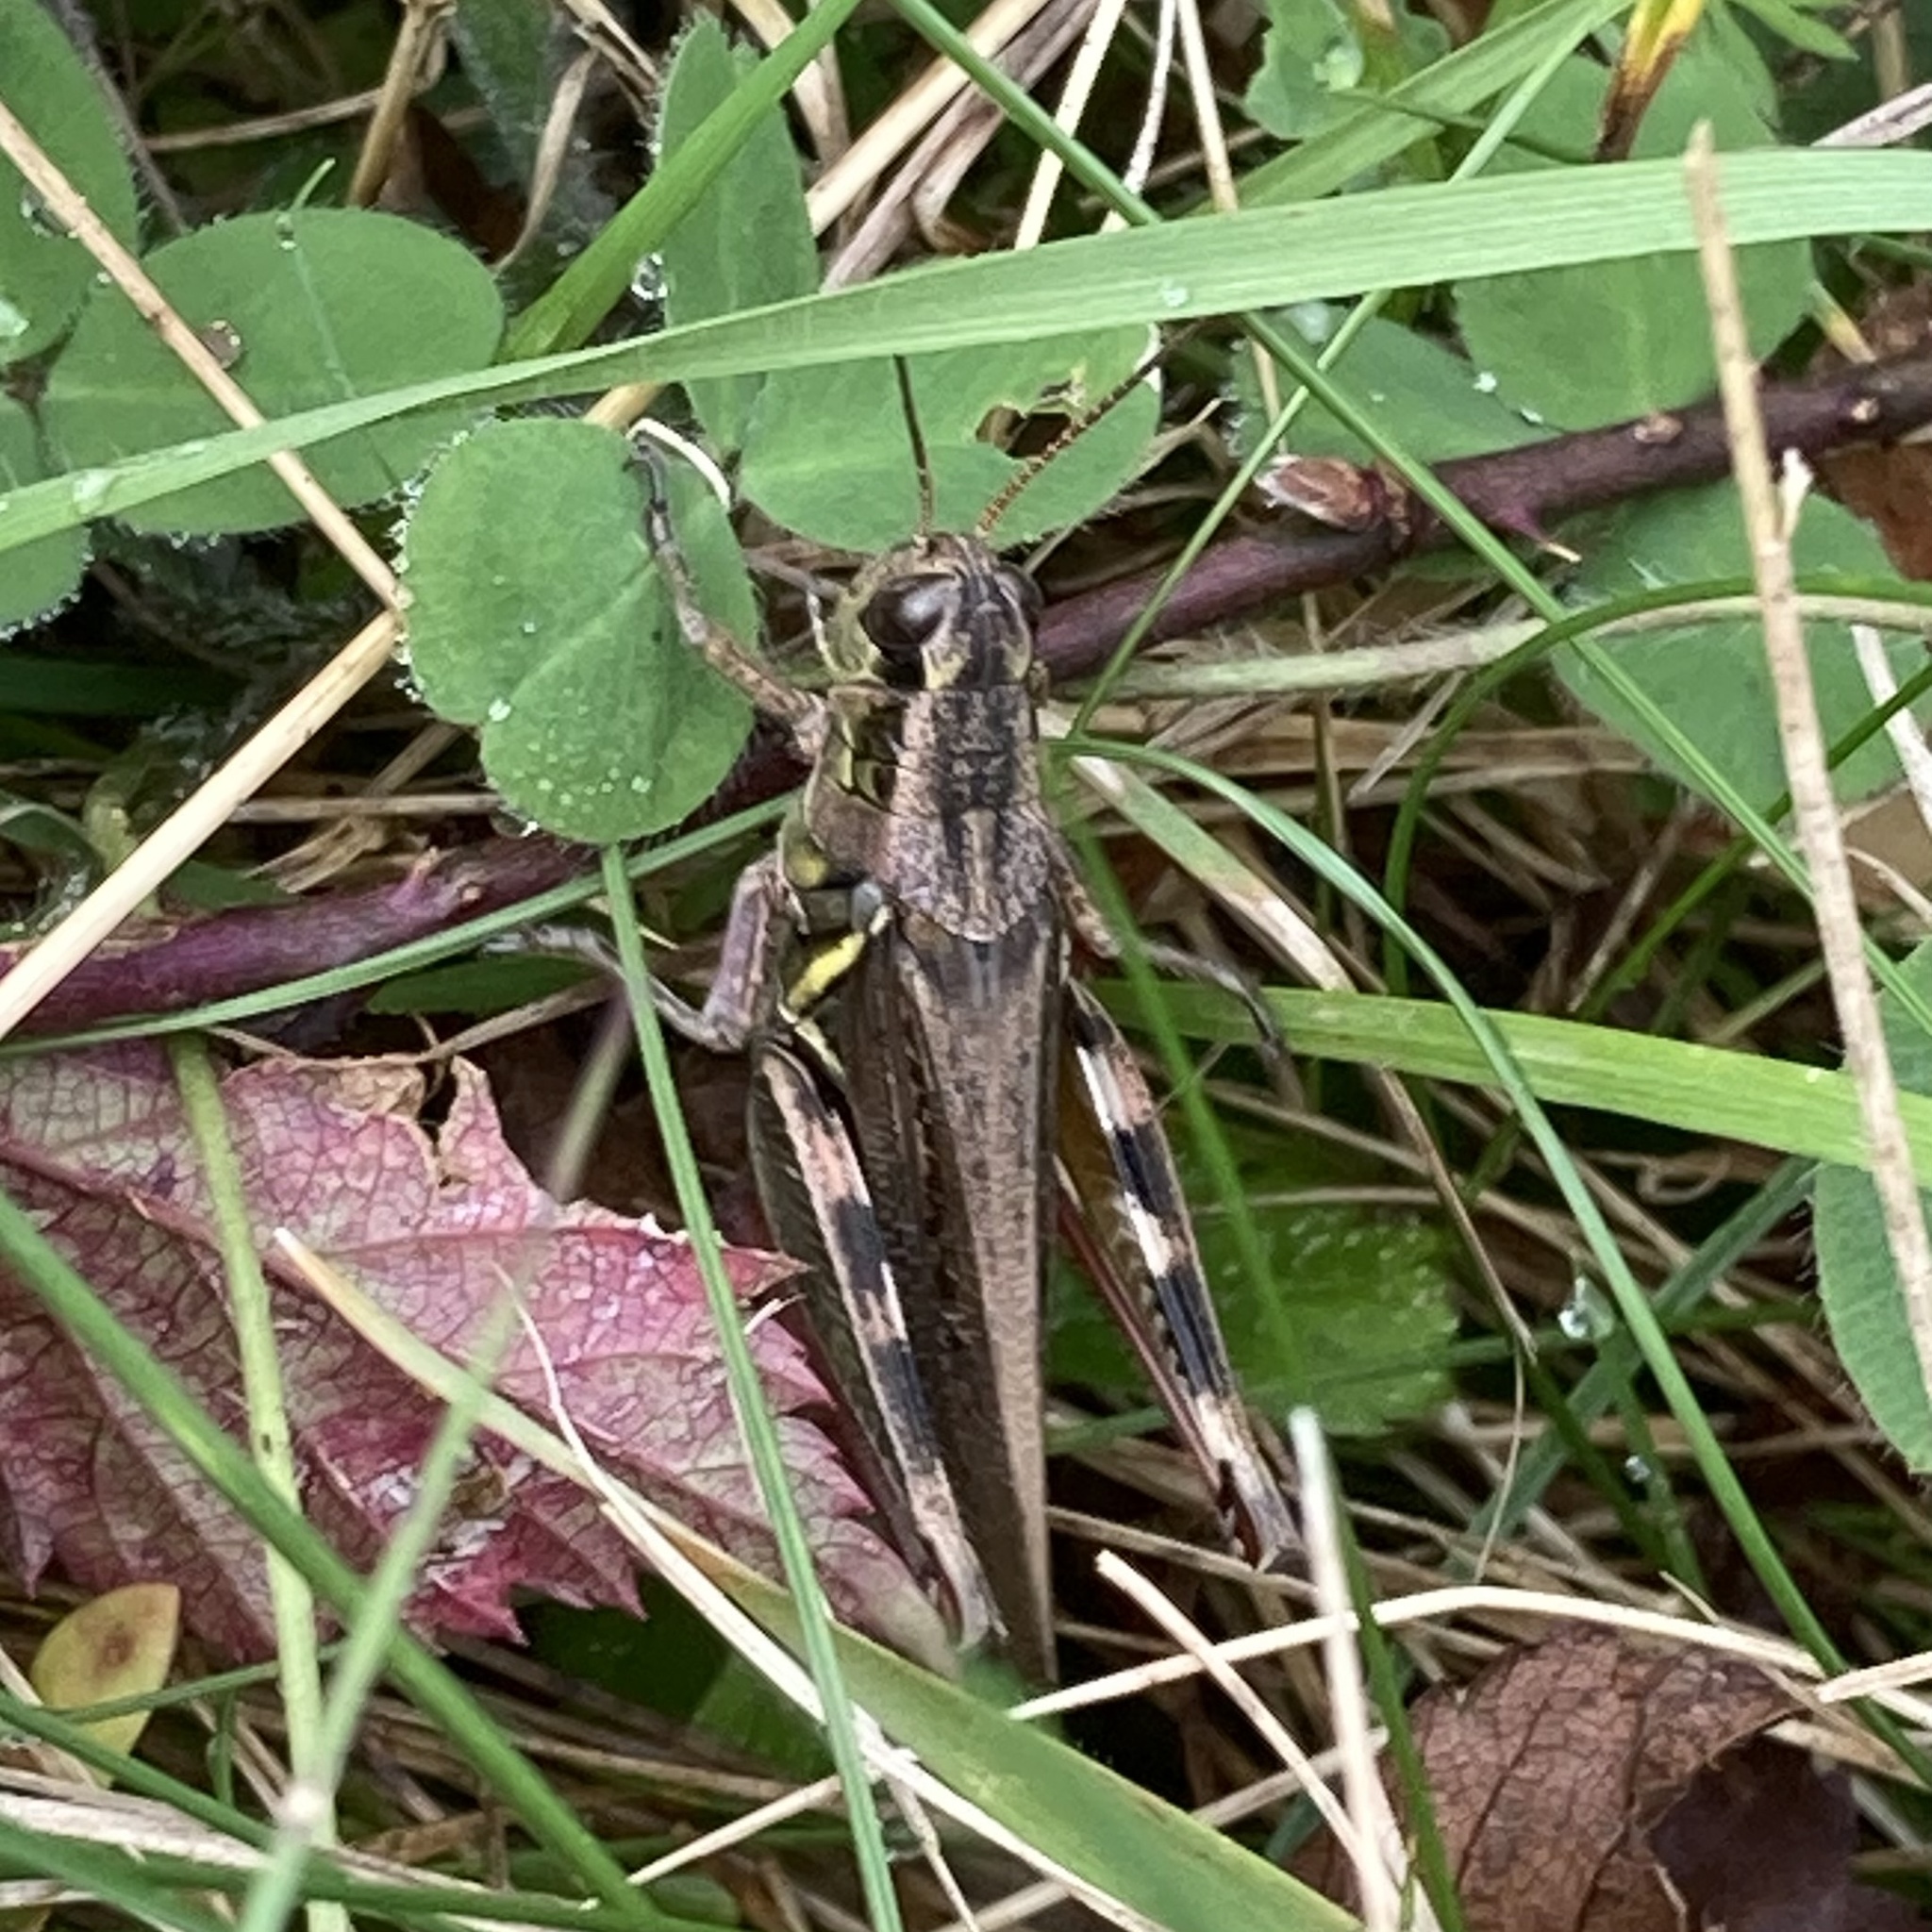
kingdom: Animalia
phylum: Arthropoda
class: Insecta
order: Orthoptera
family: Acrididae
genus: Melanoplus
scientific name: Melanoplus femurrubrum
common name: Red-legged grasshopper
